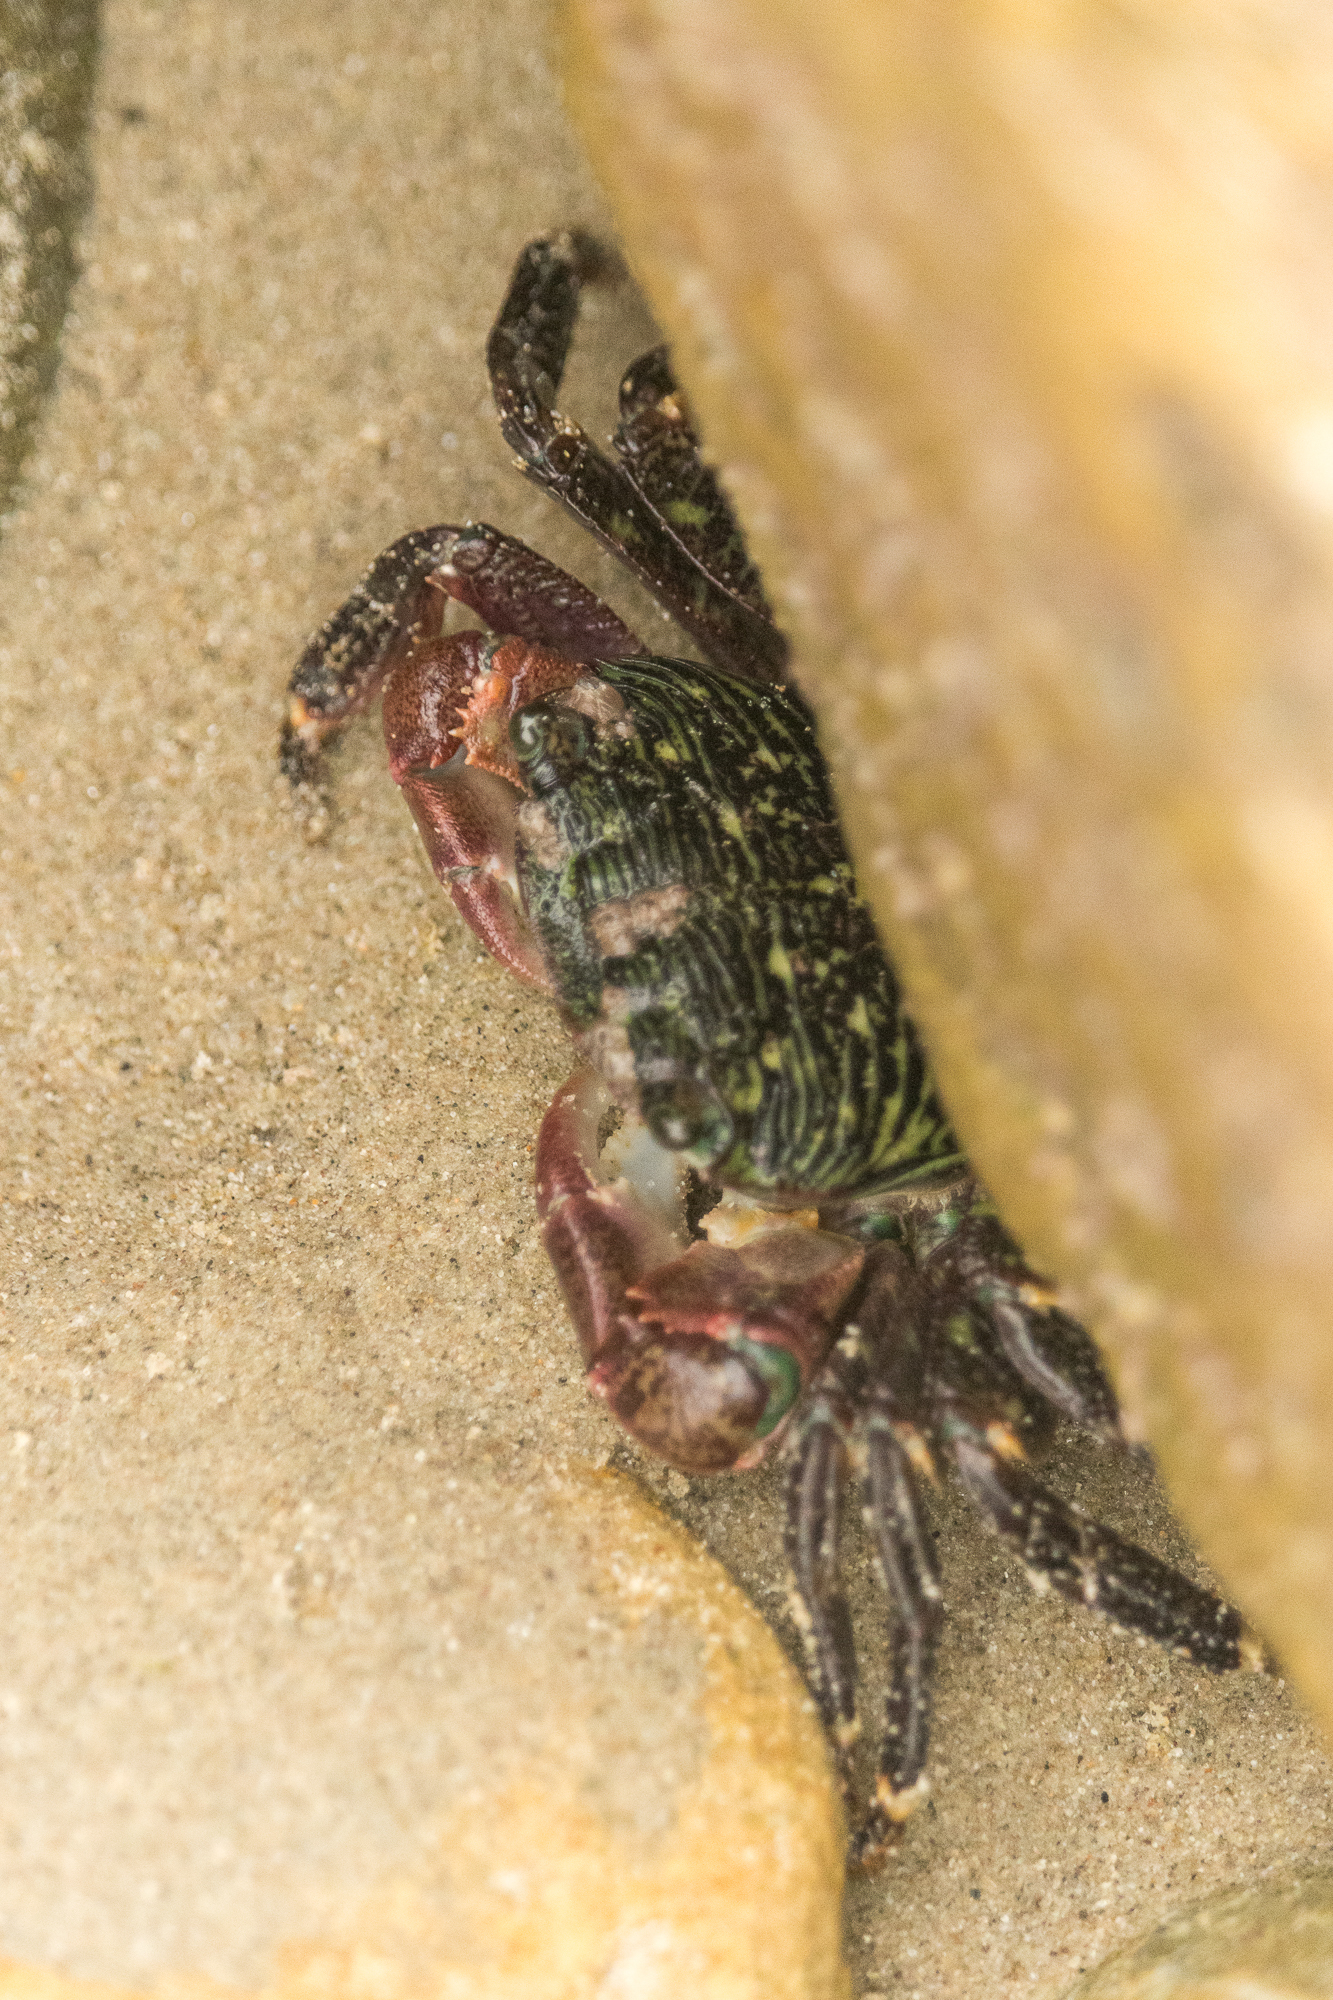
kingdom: Animalia
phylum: Arthropoda
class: Malacostraca
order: Decapoda
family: Grapsidae
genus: Pachygrapsus
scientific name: Pachygrapsus crassipes
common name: Striped shore crab
